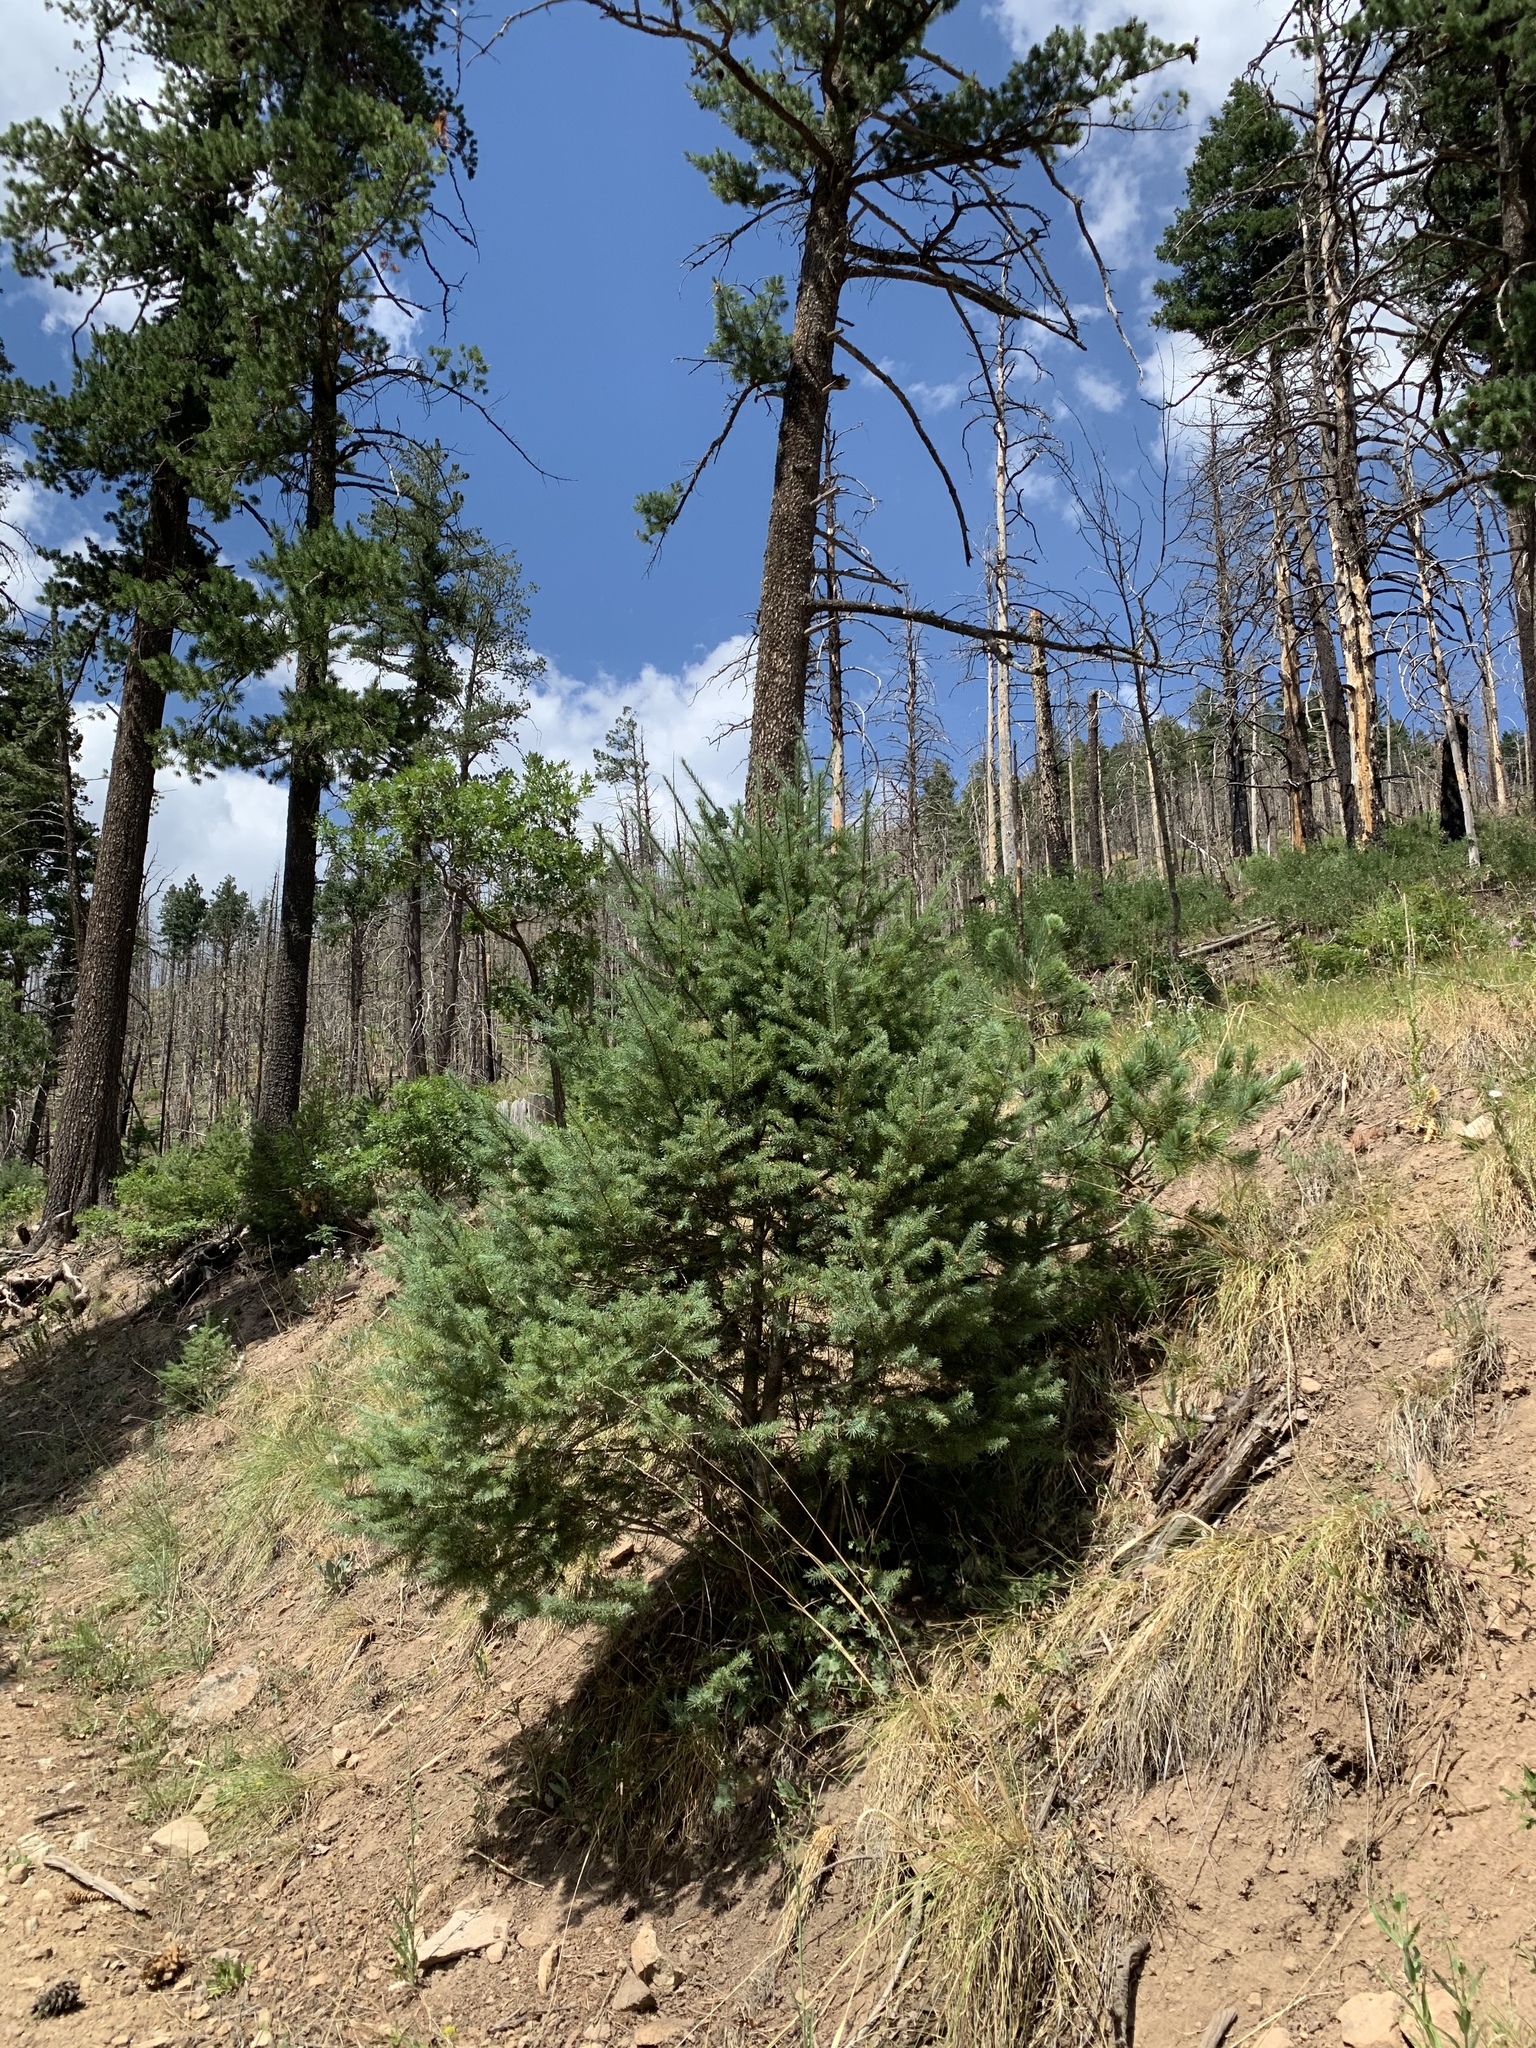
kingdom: Plantae
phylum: Tracheophyta
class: Pinopsida
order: Pinales
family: Pinaceae
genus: Pseudotsuga
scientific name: Pseudotsuga menziesii
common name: Douglas fir
